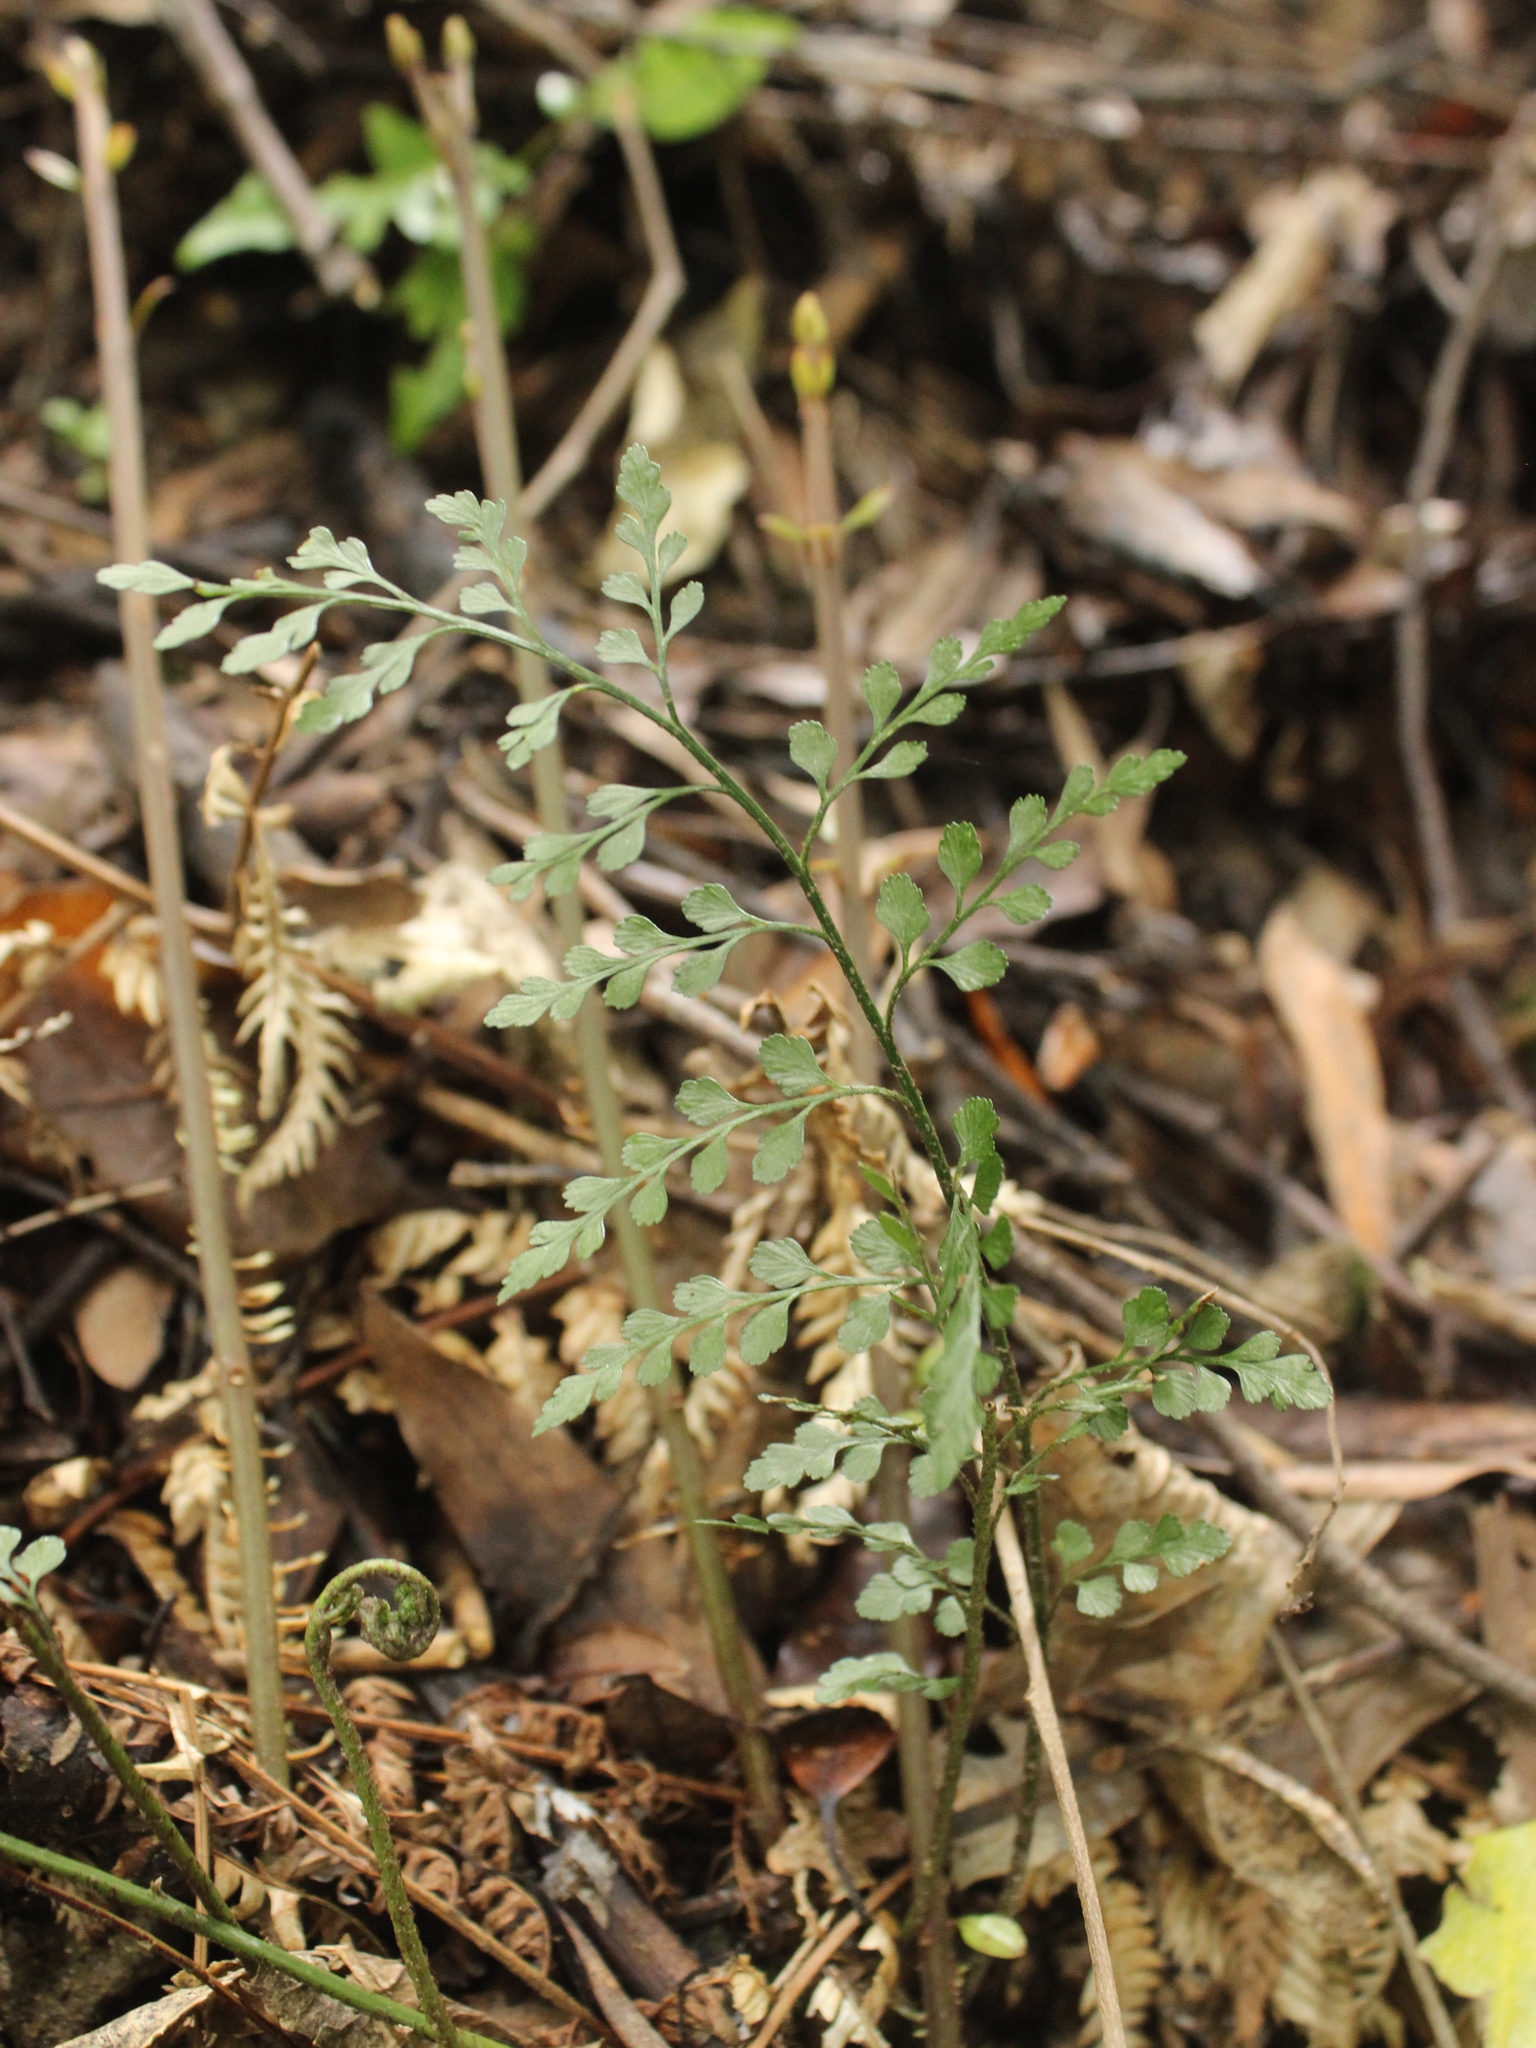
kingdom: Plantae
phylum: Tracheophyta
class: Polypodiopsida
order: Polypodiales
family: Aspleniaceae
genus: Asplenium
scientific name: Asplenium hookerianum
